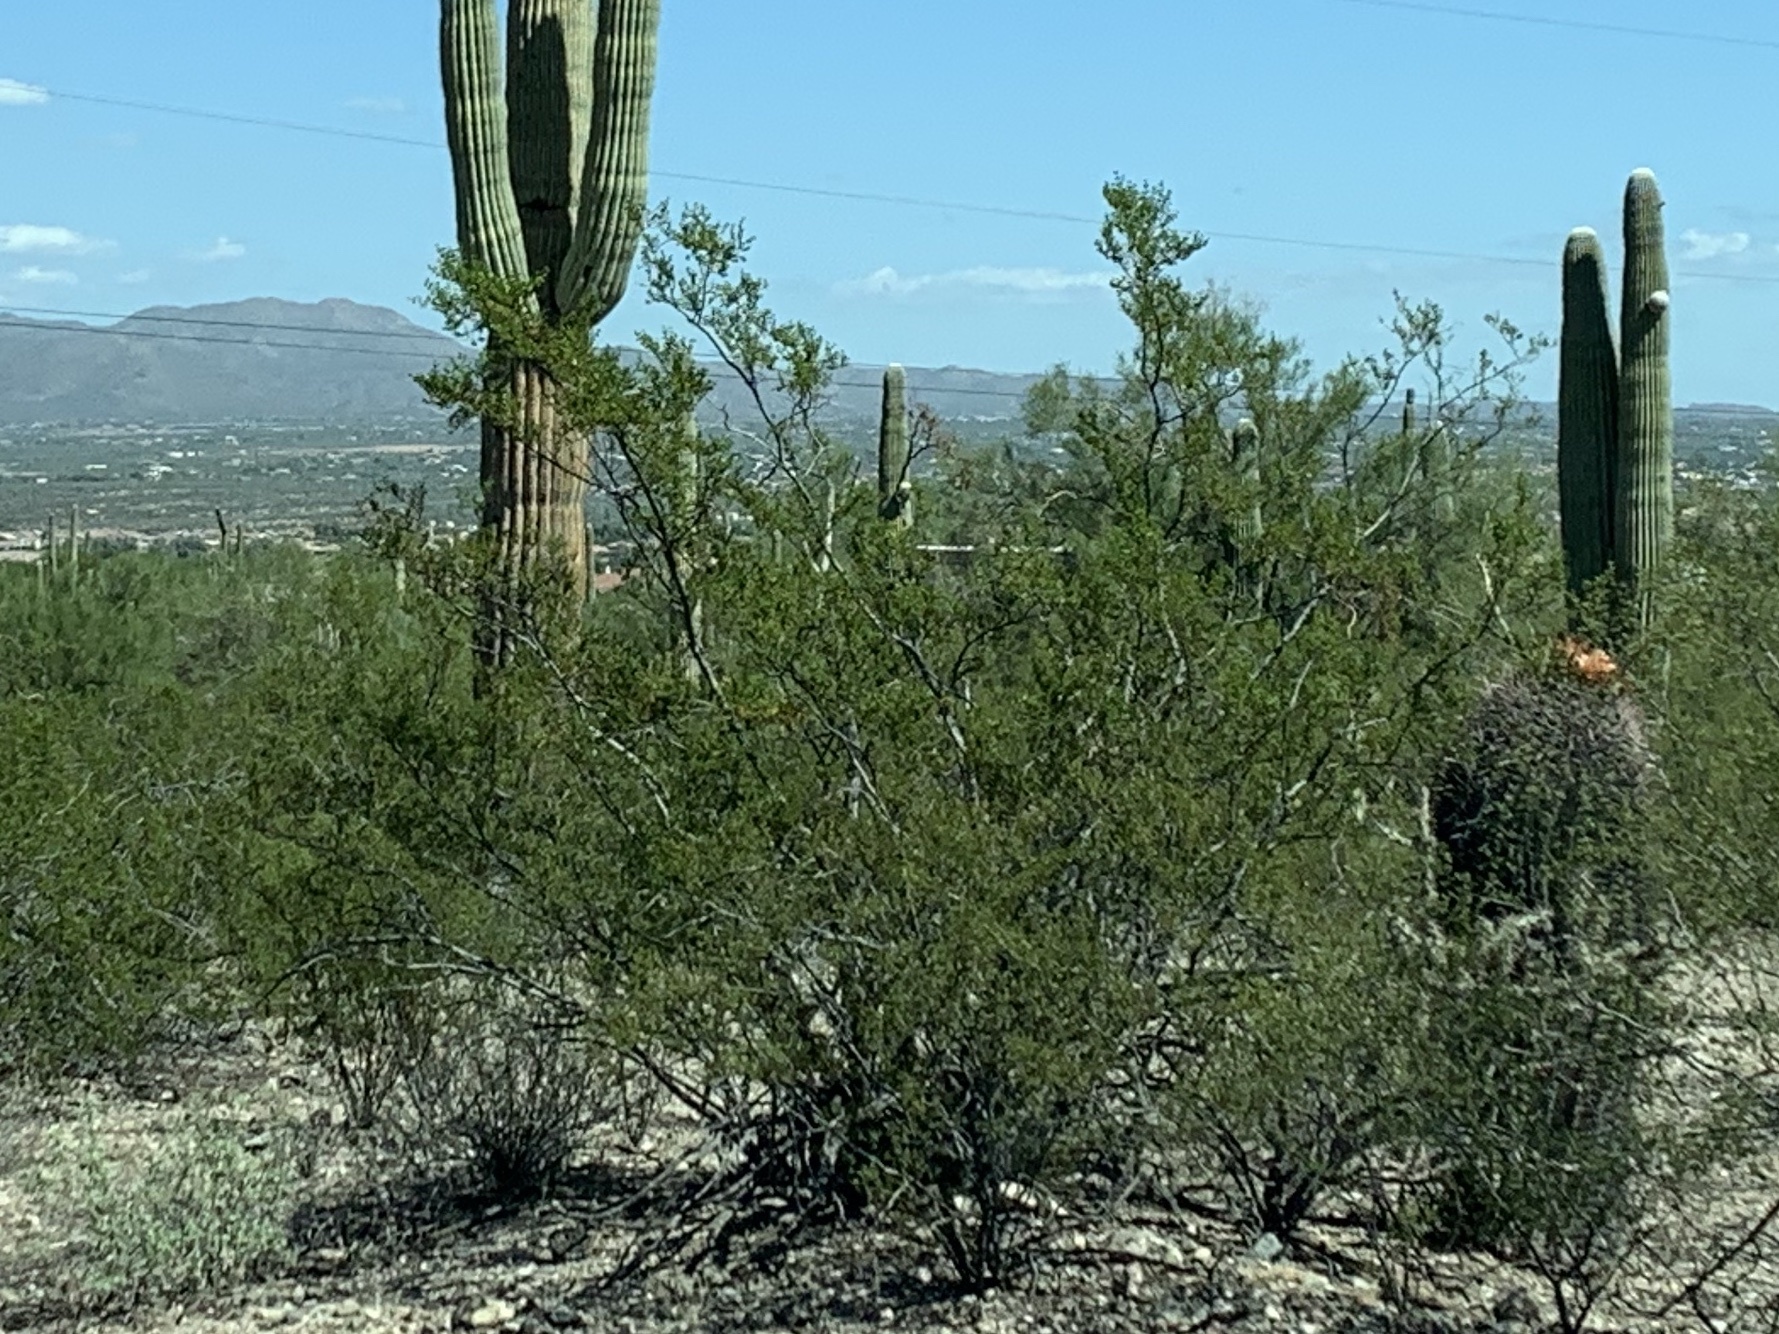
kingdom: Plantae
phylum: Tracheophyta
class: Magnoliopsida
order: Zygophyllales
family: Zygophyllaceae
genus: Larrea
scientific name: Larrea tridentata
